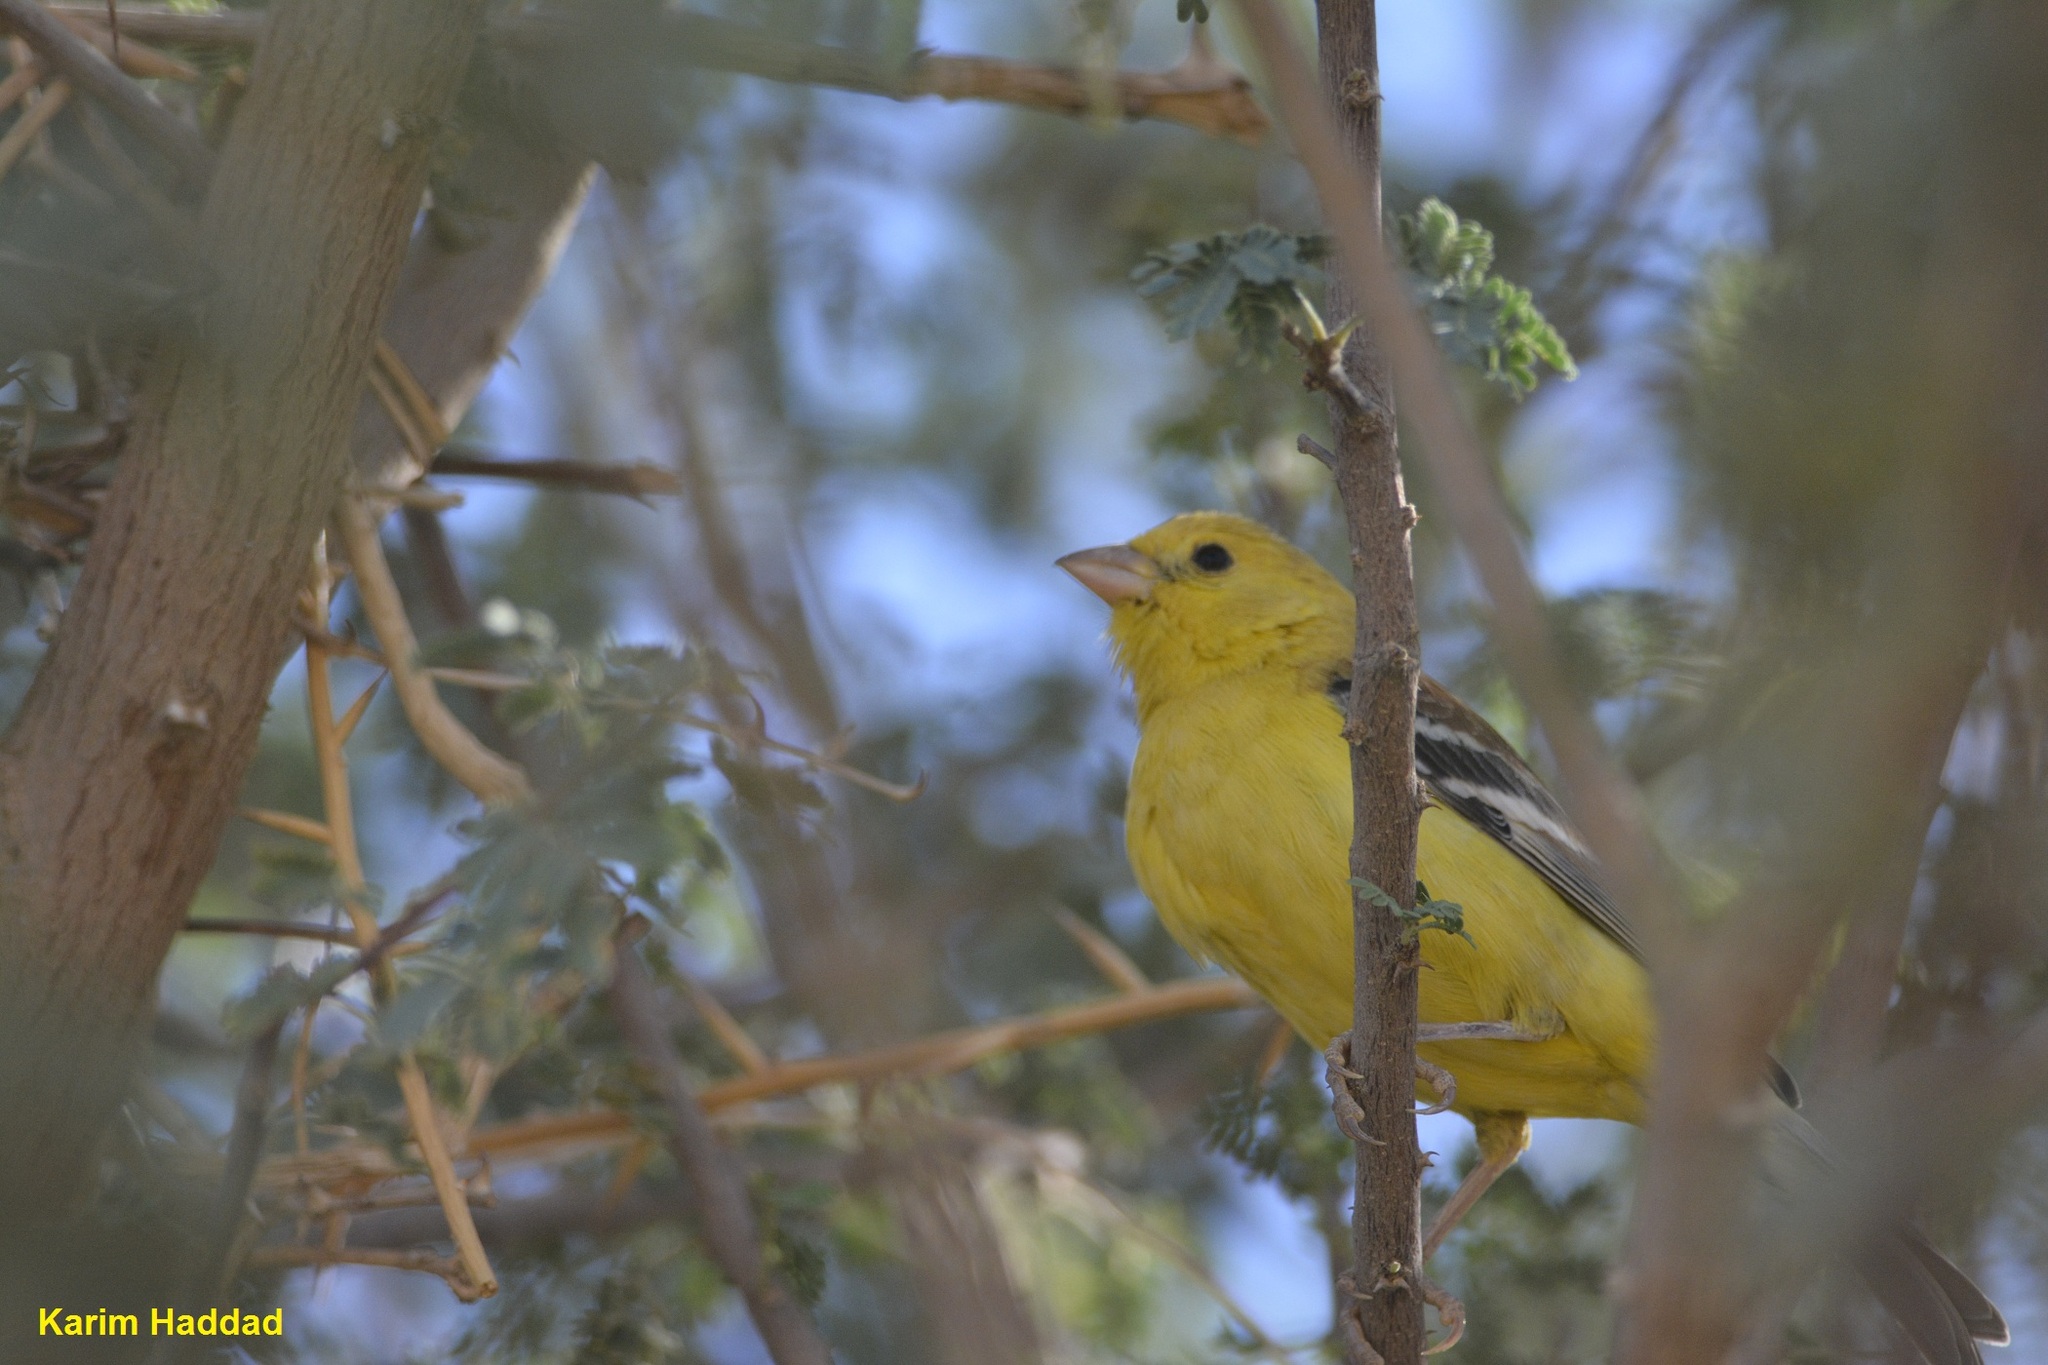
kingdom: Animalia
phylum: Chordata
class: Aves
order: Passeriformes
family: Passeridae
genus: Passer
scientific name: Passer luteus
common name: Sudan golden sparrow
